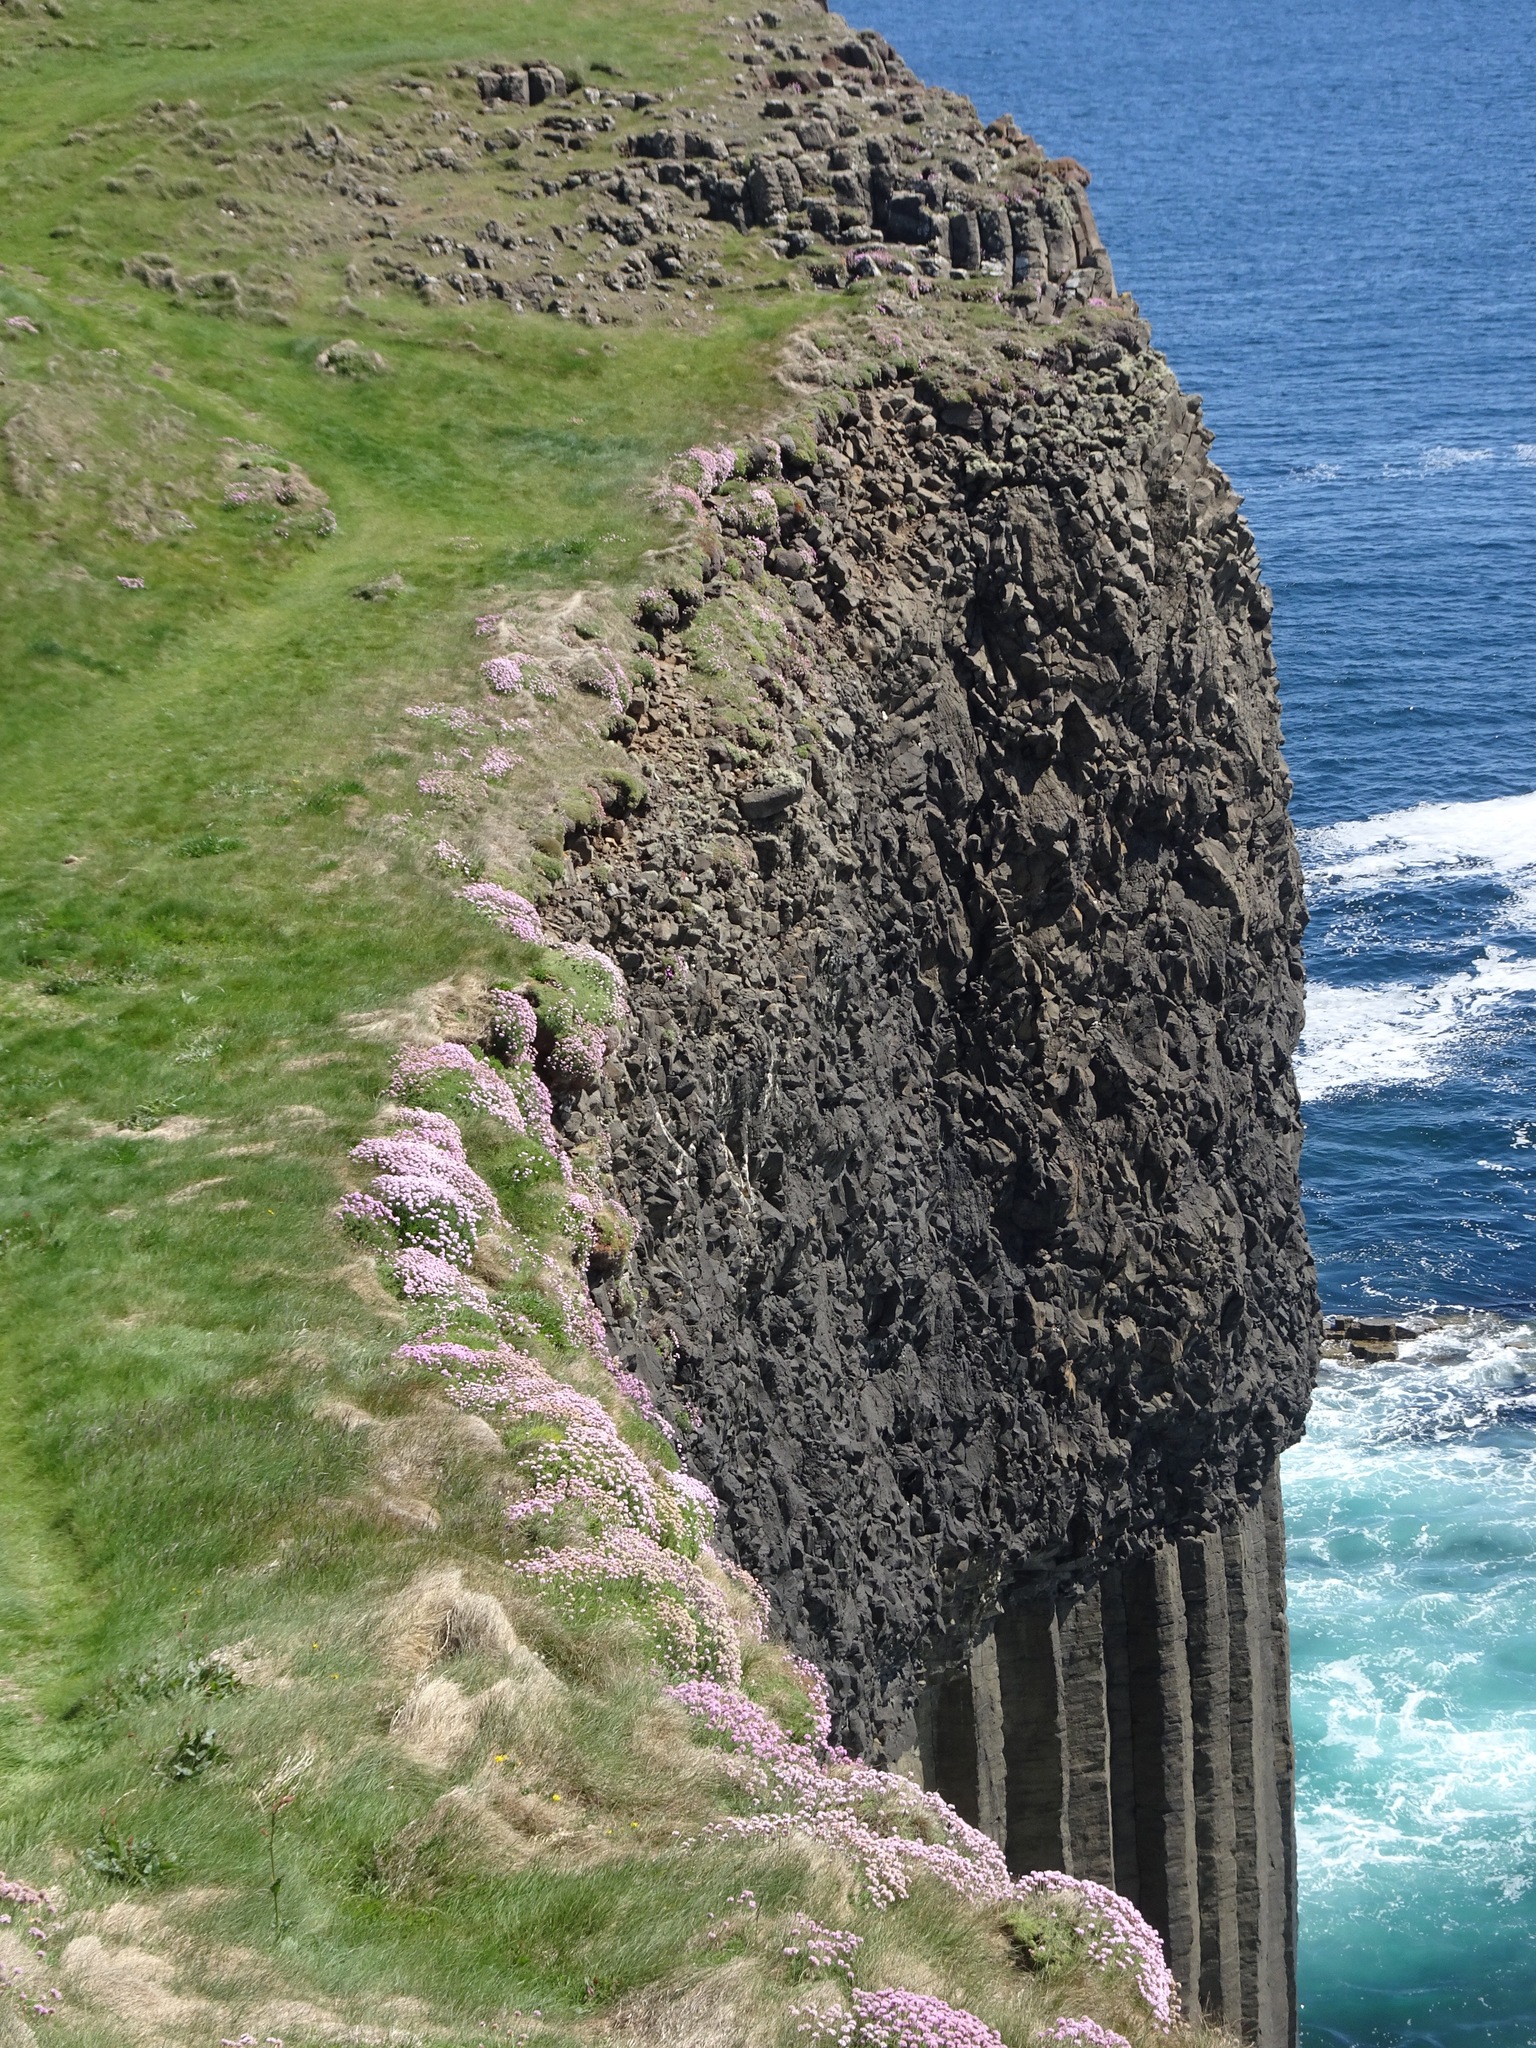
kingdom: Plantae
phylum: Tracheophyta
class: Magnoliopsida
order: Caryophyllales
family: Plumbaginaceae
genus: Armeria
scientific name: Armeria maritima
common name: Thrift
